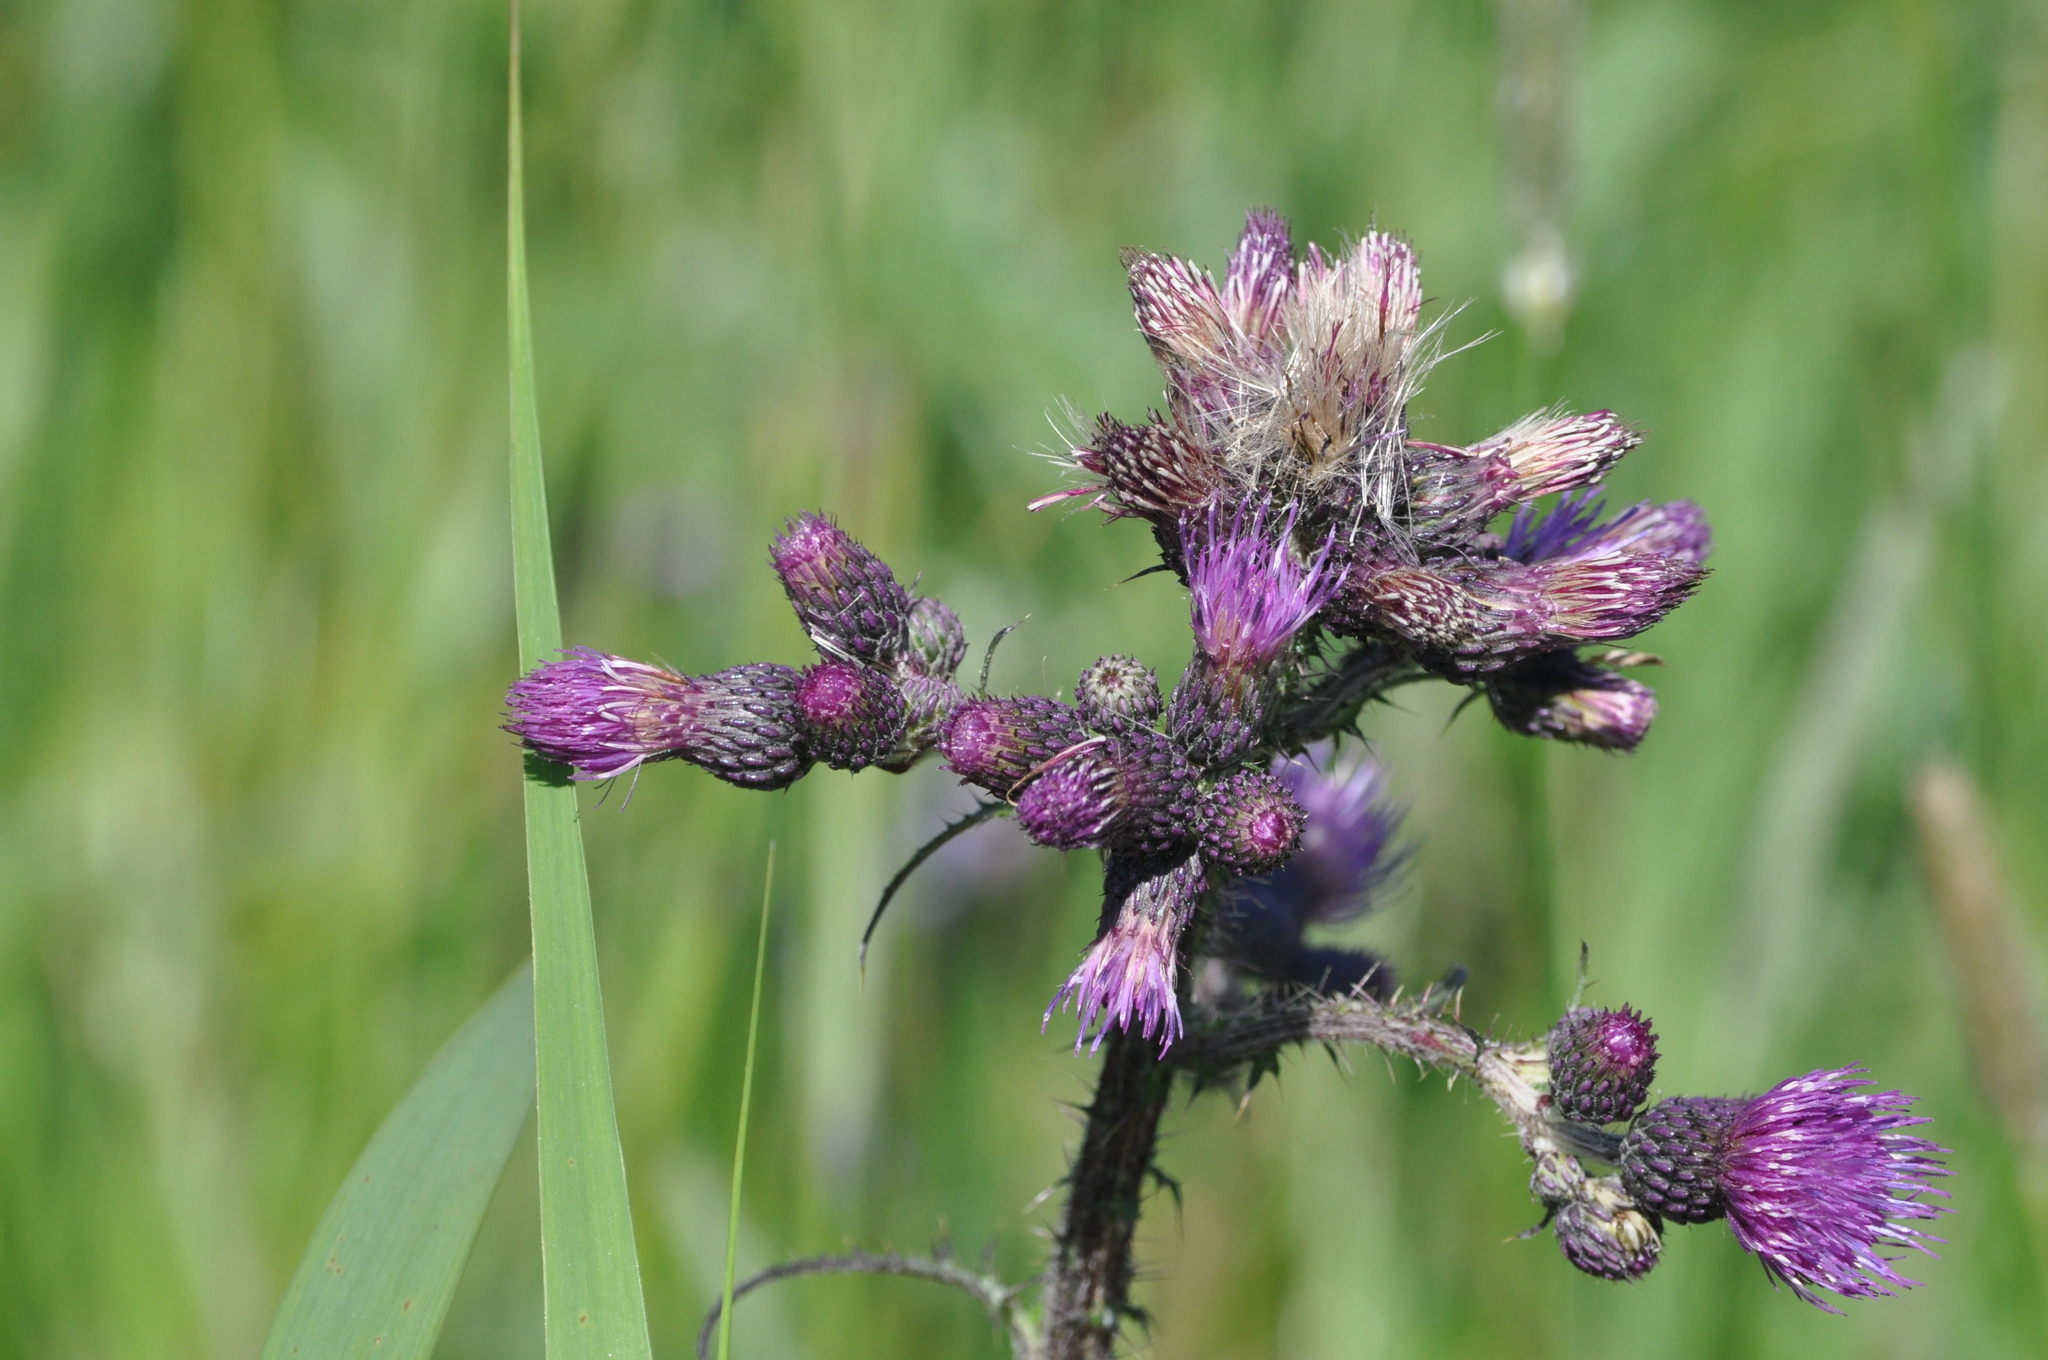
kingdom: Plantae
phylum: Tracheophyta
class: Magnoliopsida
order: Asterales
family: Asteraceae
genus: Cirsium
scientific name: Cirsium palustre
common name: Marsh thistle
